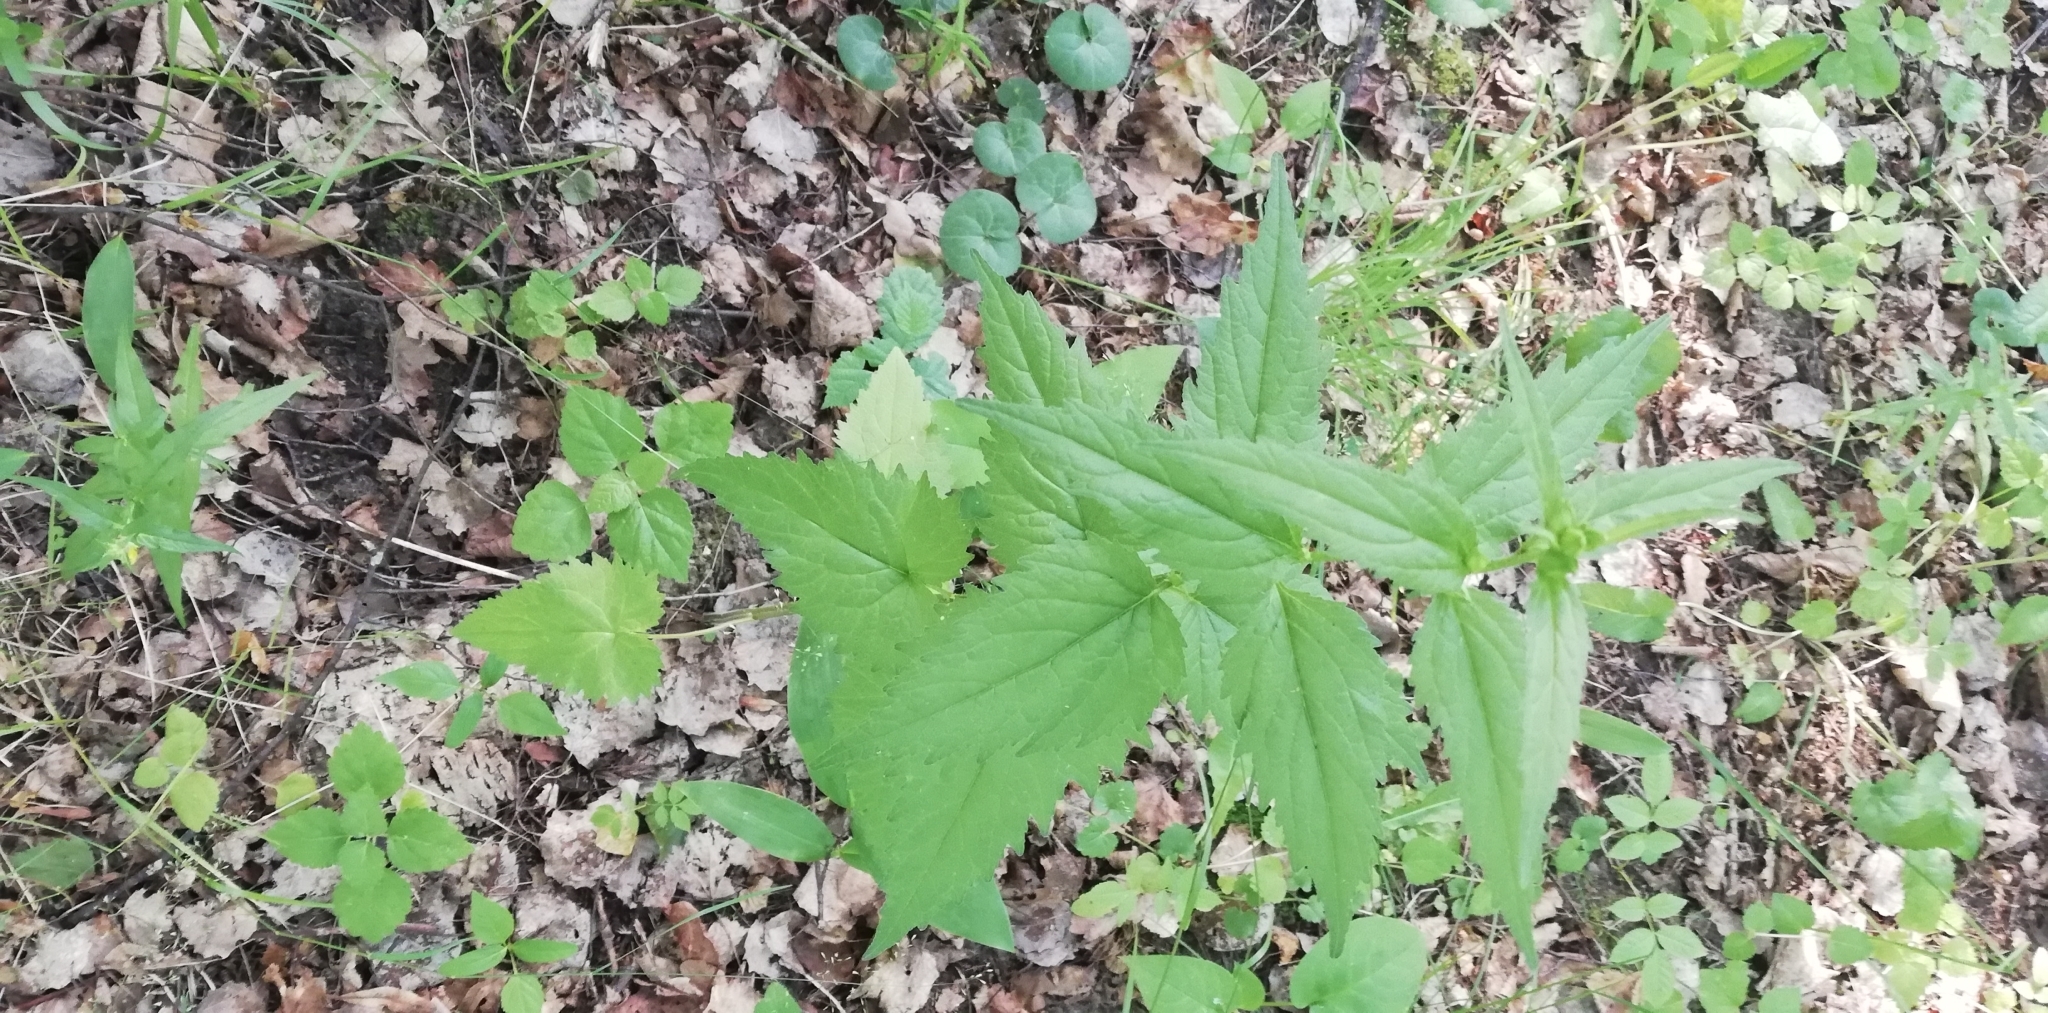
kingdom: Plantae
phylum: Tracheophyta
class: Magnoliopsida
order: Asterales
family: Campanulaceae
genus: Campanula
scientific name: Campanula trachelium
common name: Nettle-leaved bellflower
